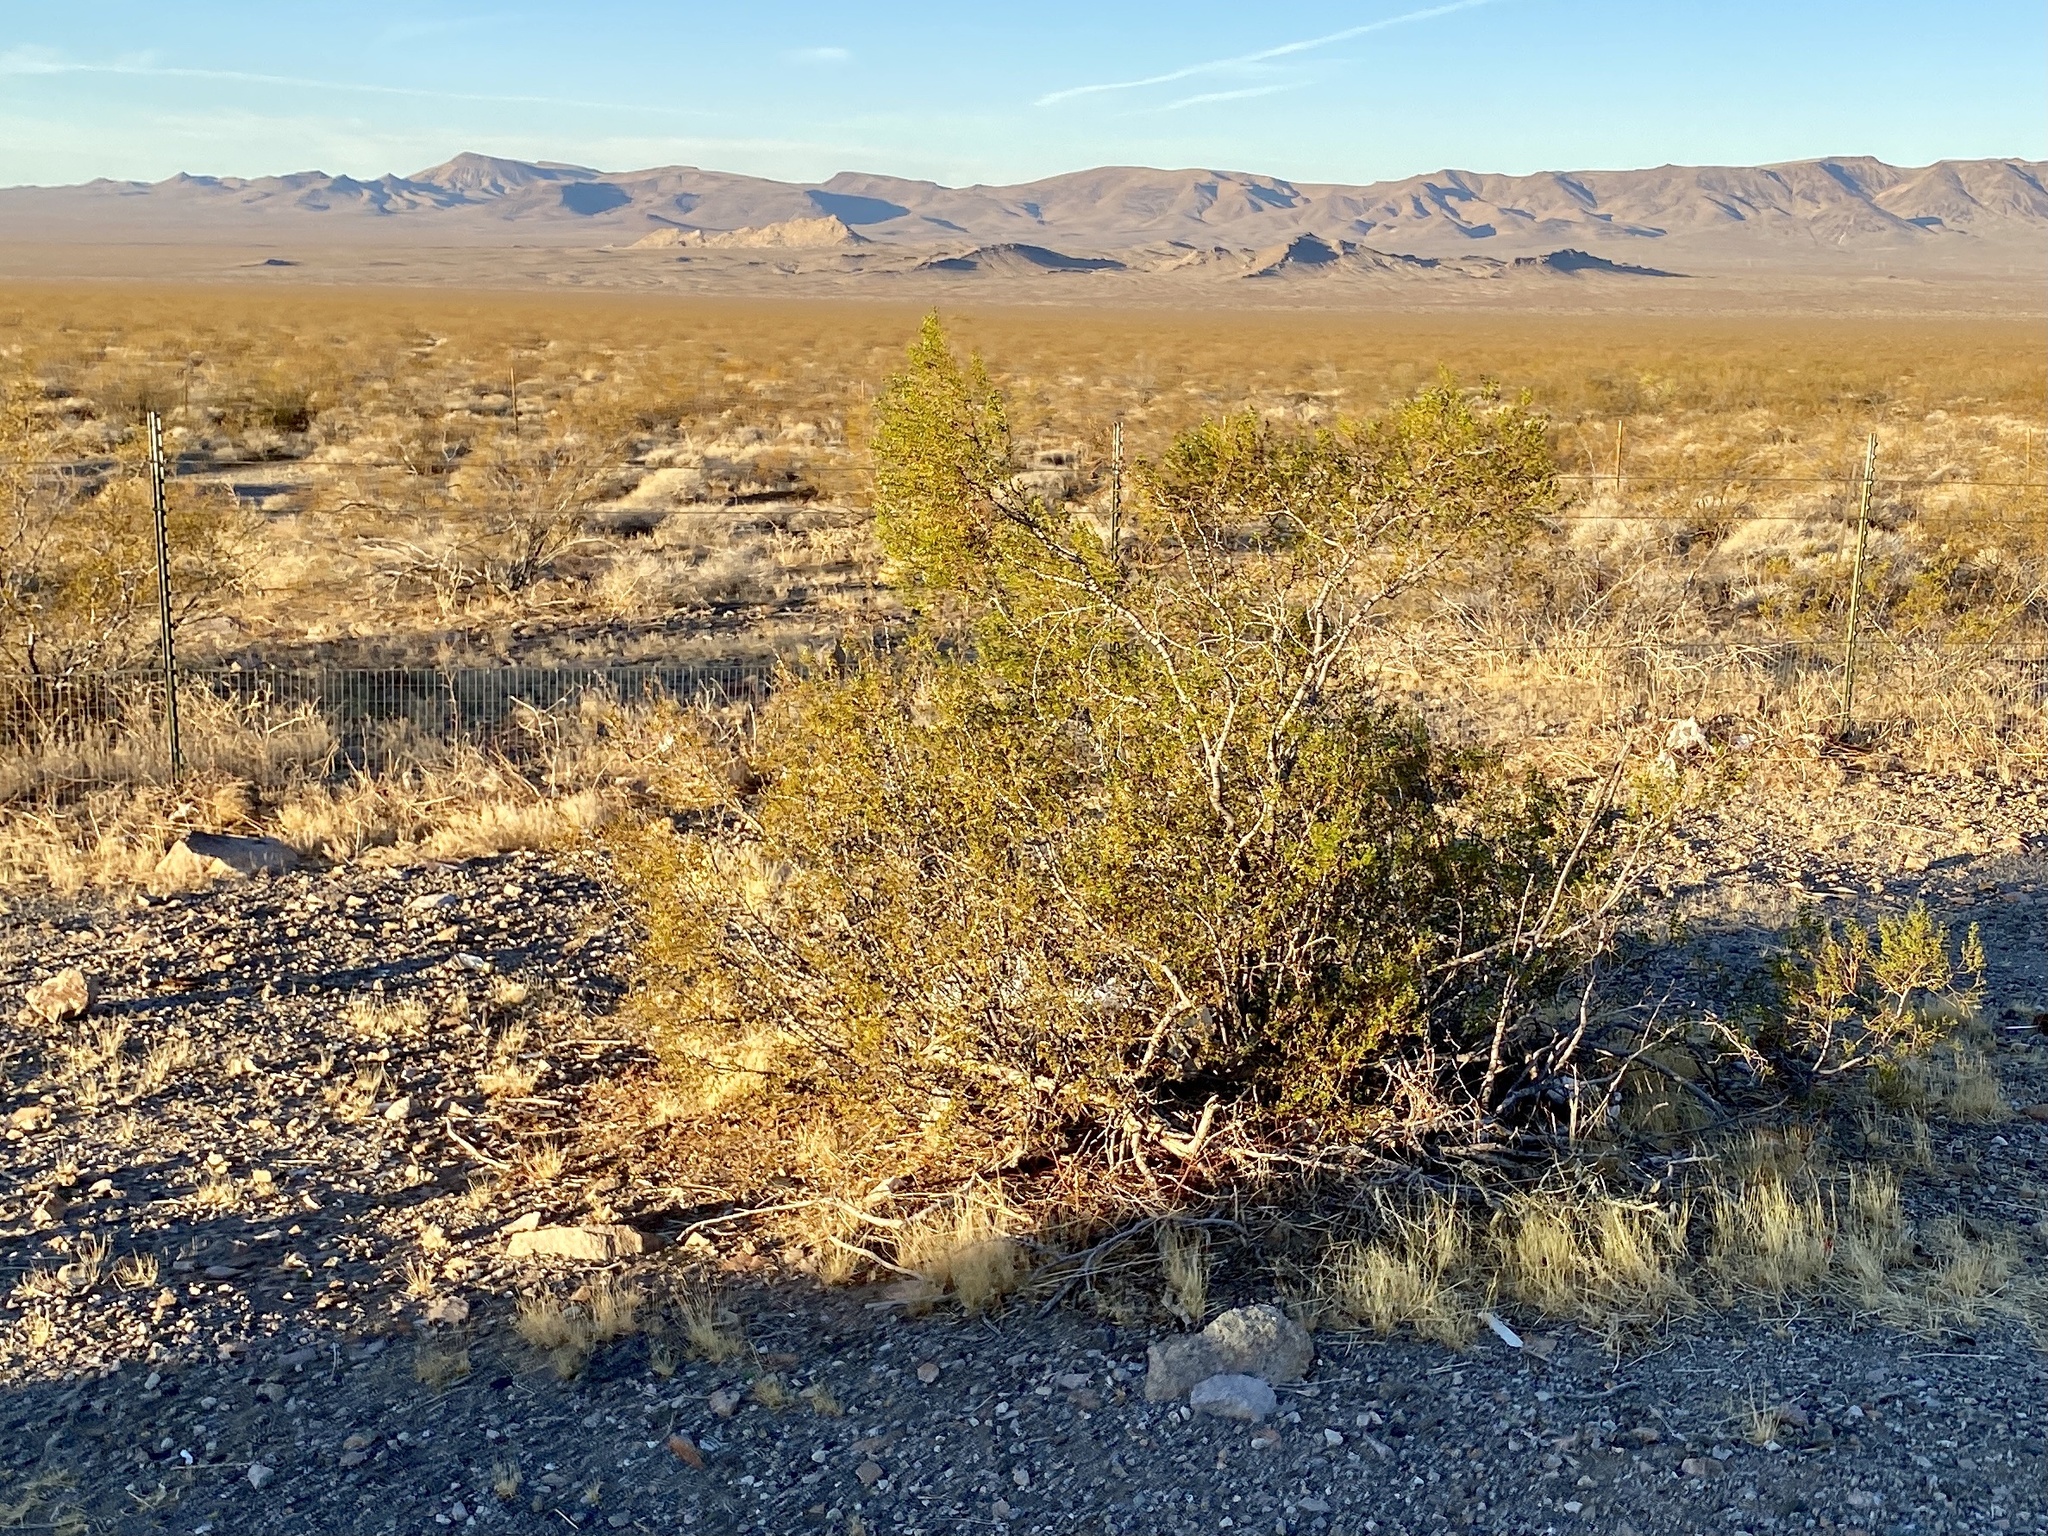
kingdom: Plantae
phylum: Tracheophyta
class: Magnoliopsida
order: Zygophyllales
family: Zygophyllaceae
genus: Larrea
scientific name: Larrea tridentata
